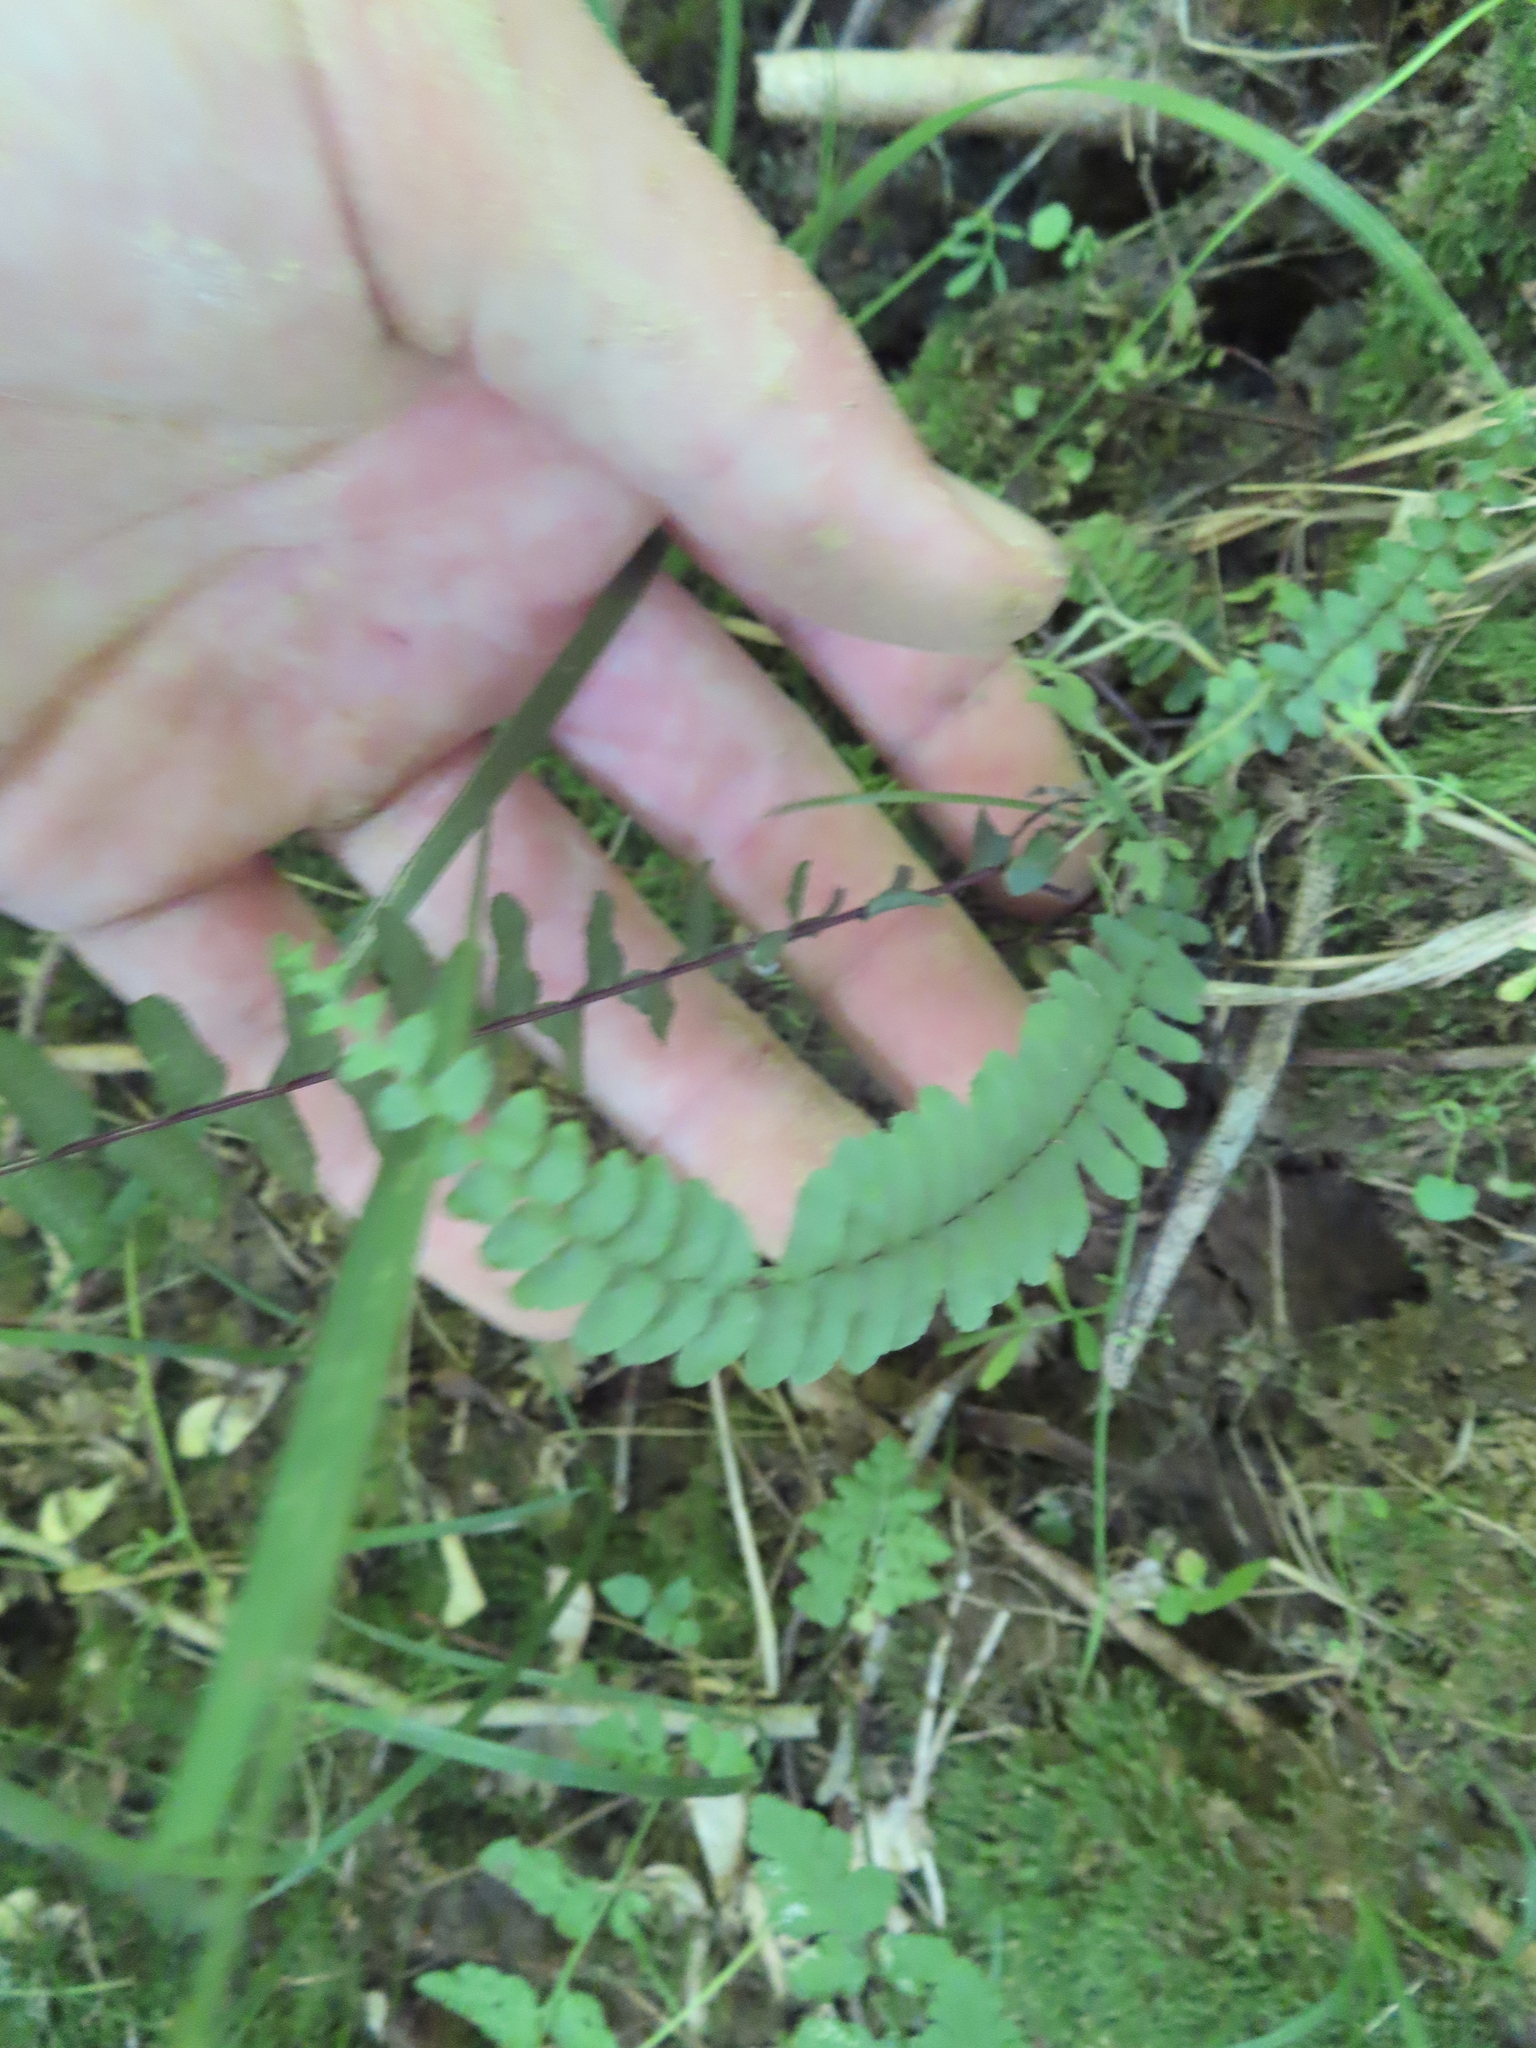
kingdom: Plantae
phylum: Tracheophyta
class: Polypodiopsida
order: Polypodiales
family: Aspleniaceae
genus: Asplenium
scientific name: Asplenium platyneuron
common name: Ebony spleenwort
